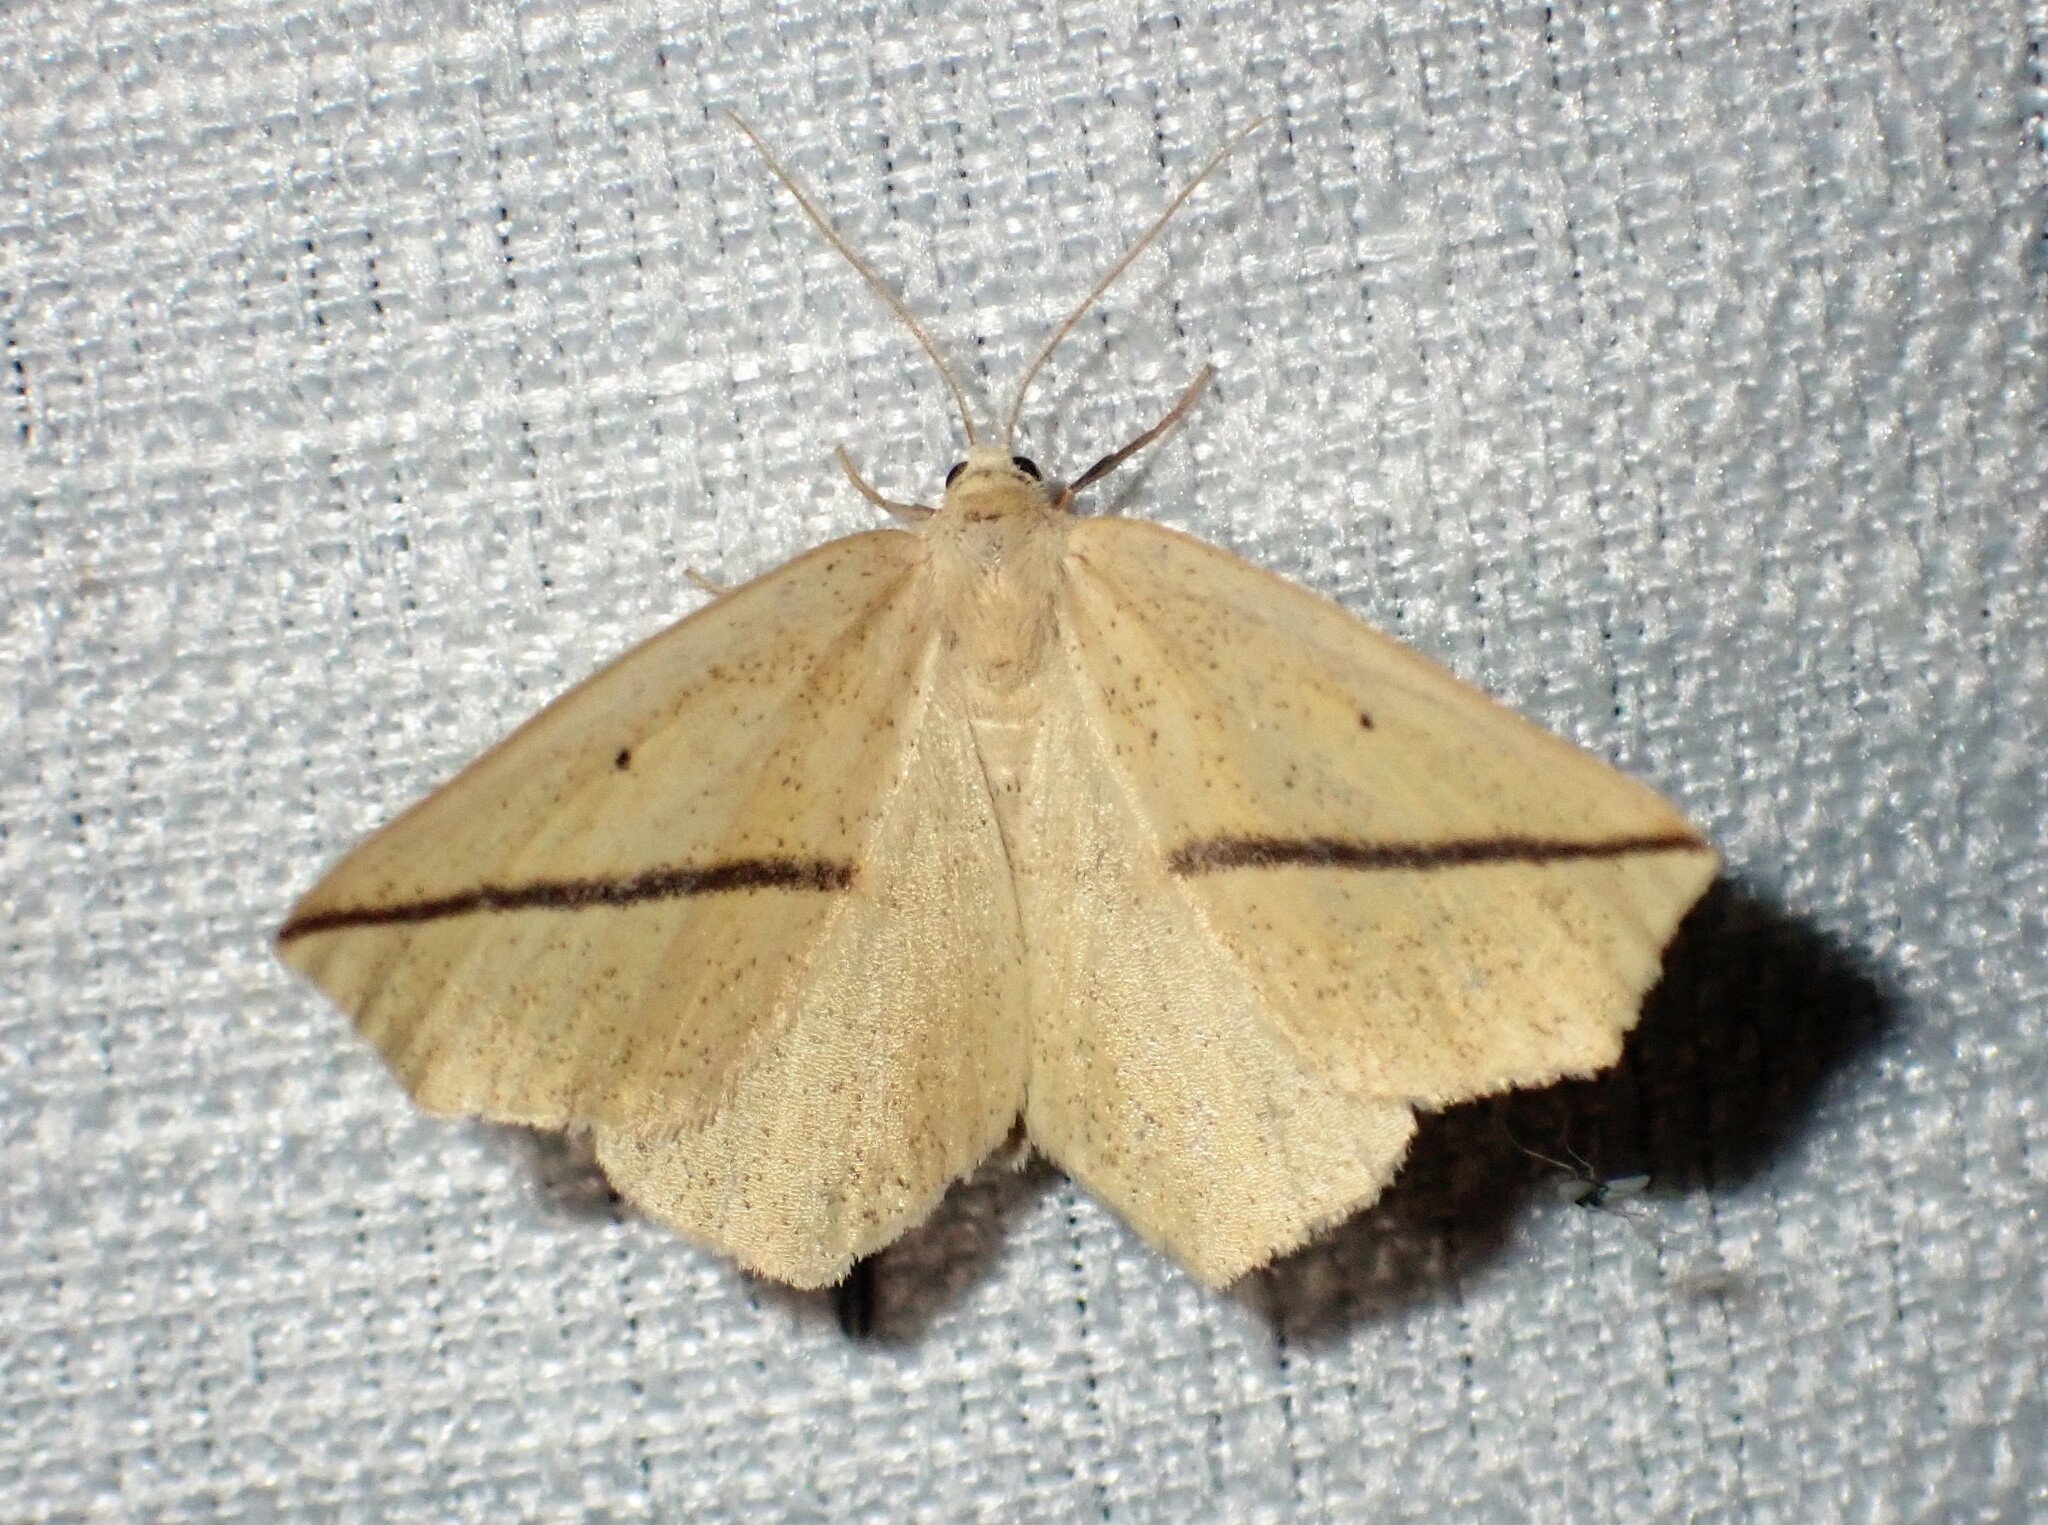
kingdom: Animalia
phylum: Arthropoda
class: Insecta
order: Lepidoptera
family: Geometridae
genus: Tetracis
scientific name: Tetracis crocallata
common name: Yellow slant-line
